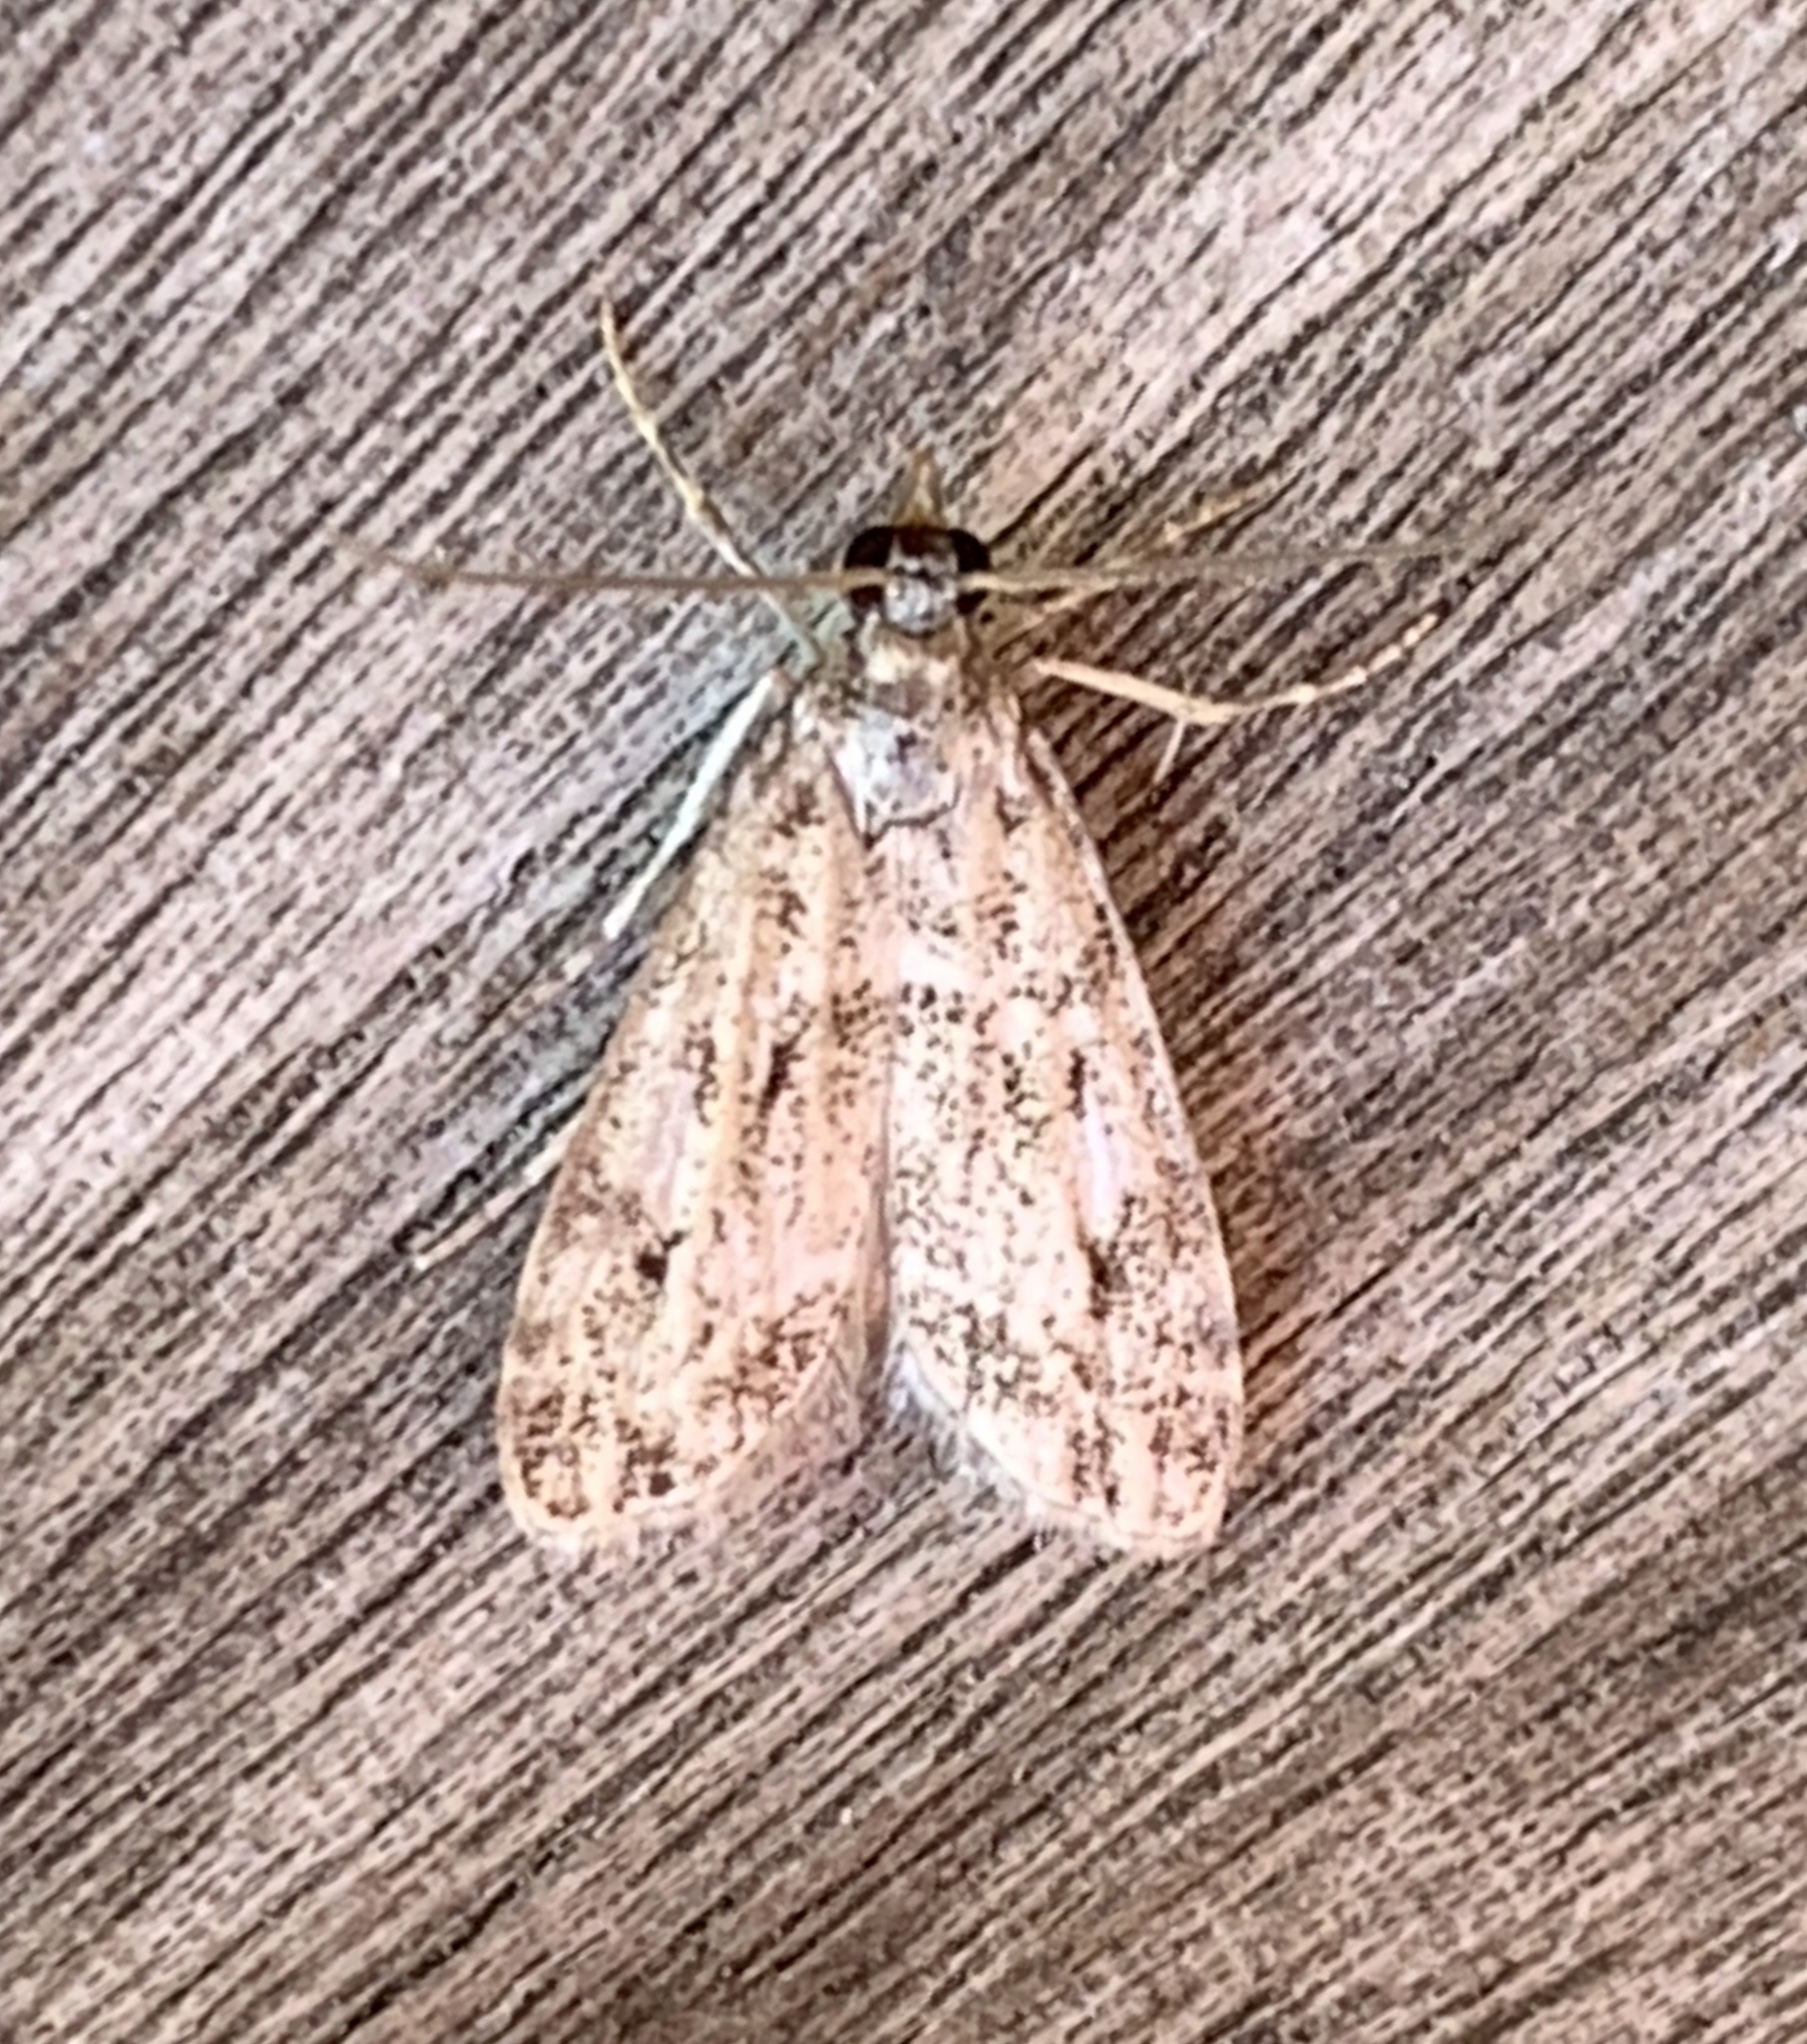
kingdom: Animalia
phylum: Arthropoda
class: Insecta
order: Lepidoptera
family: Crambidae
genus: Eudonia
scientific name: Eudonia heterosalis
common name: Mcdunnough's eudonia
